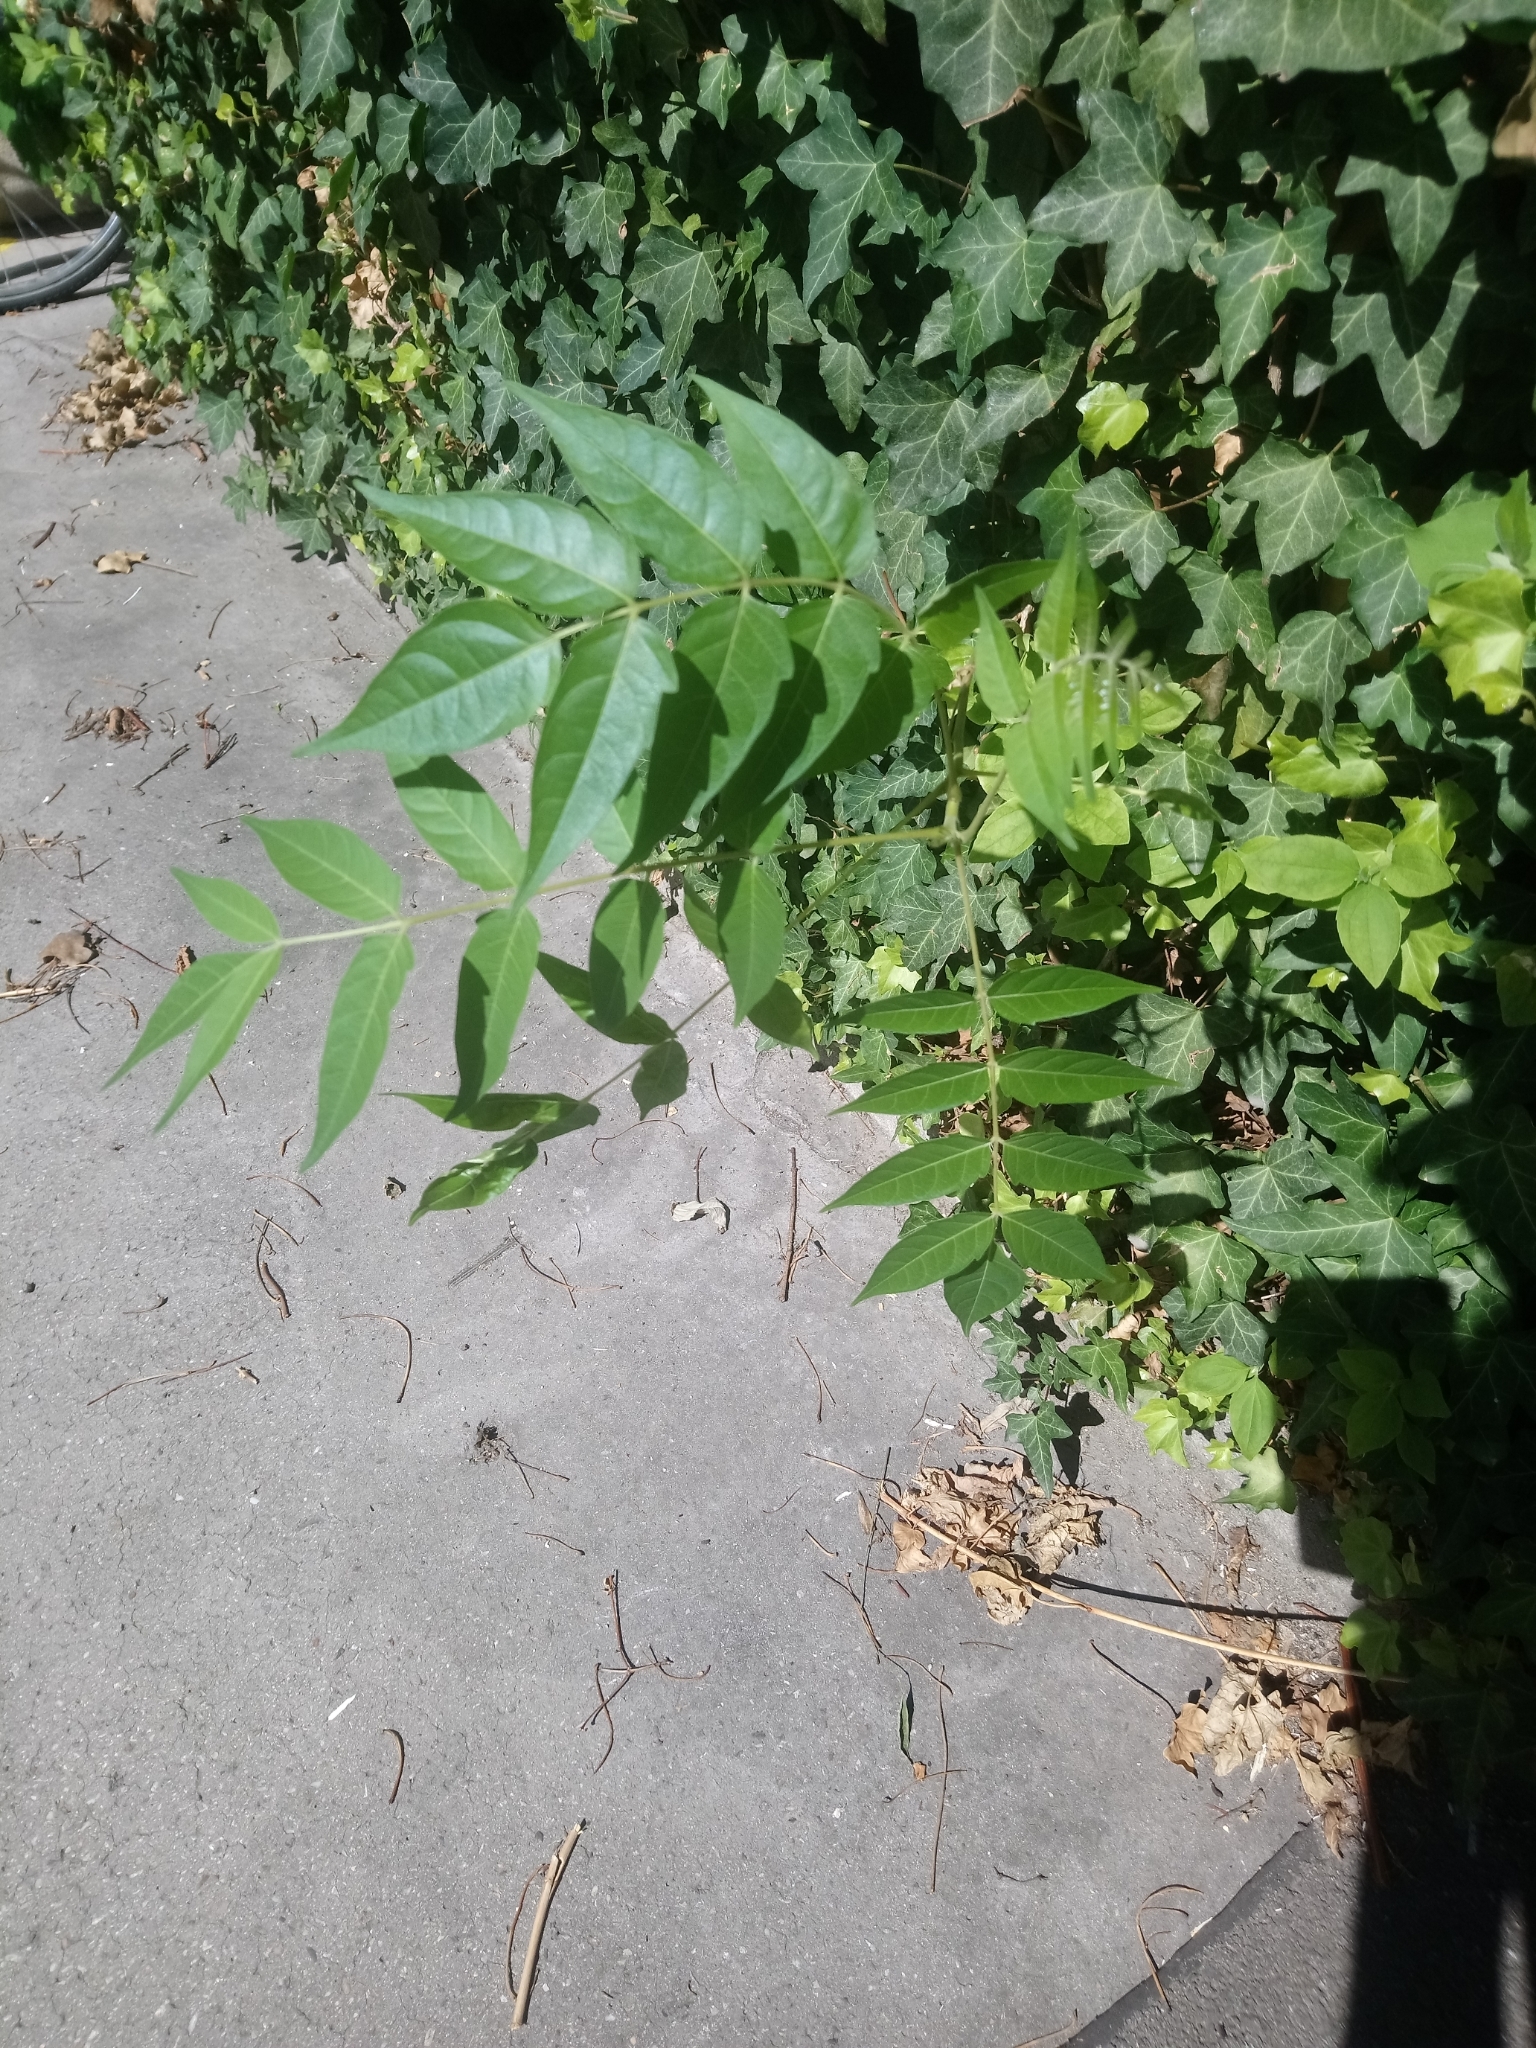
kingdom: Plantae
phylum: Tracheophyta
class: Magnoliopsida
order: Sapindales
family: Simaroubaceae
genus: Ailanthus
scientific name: Ailanthus altissima
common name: Tree-of-heaven
